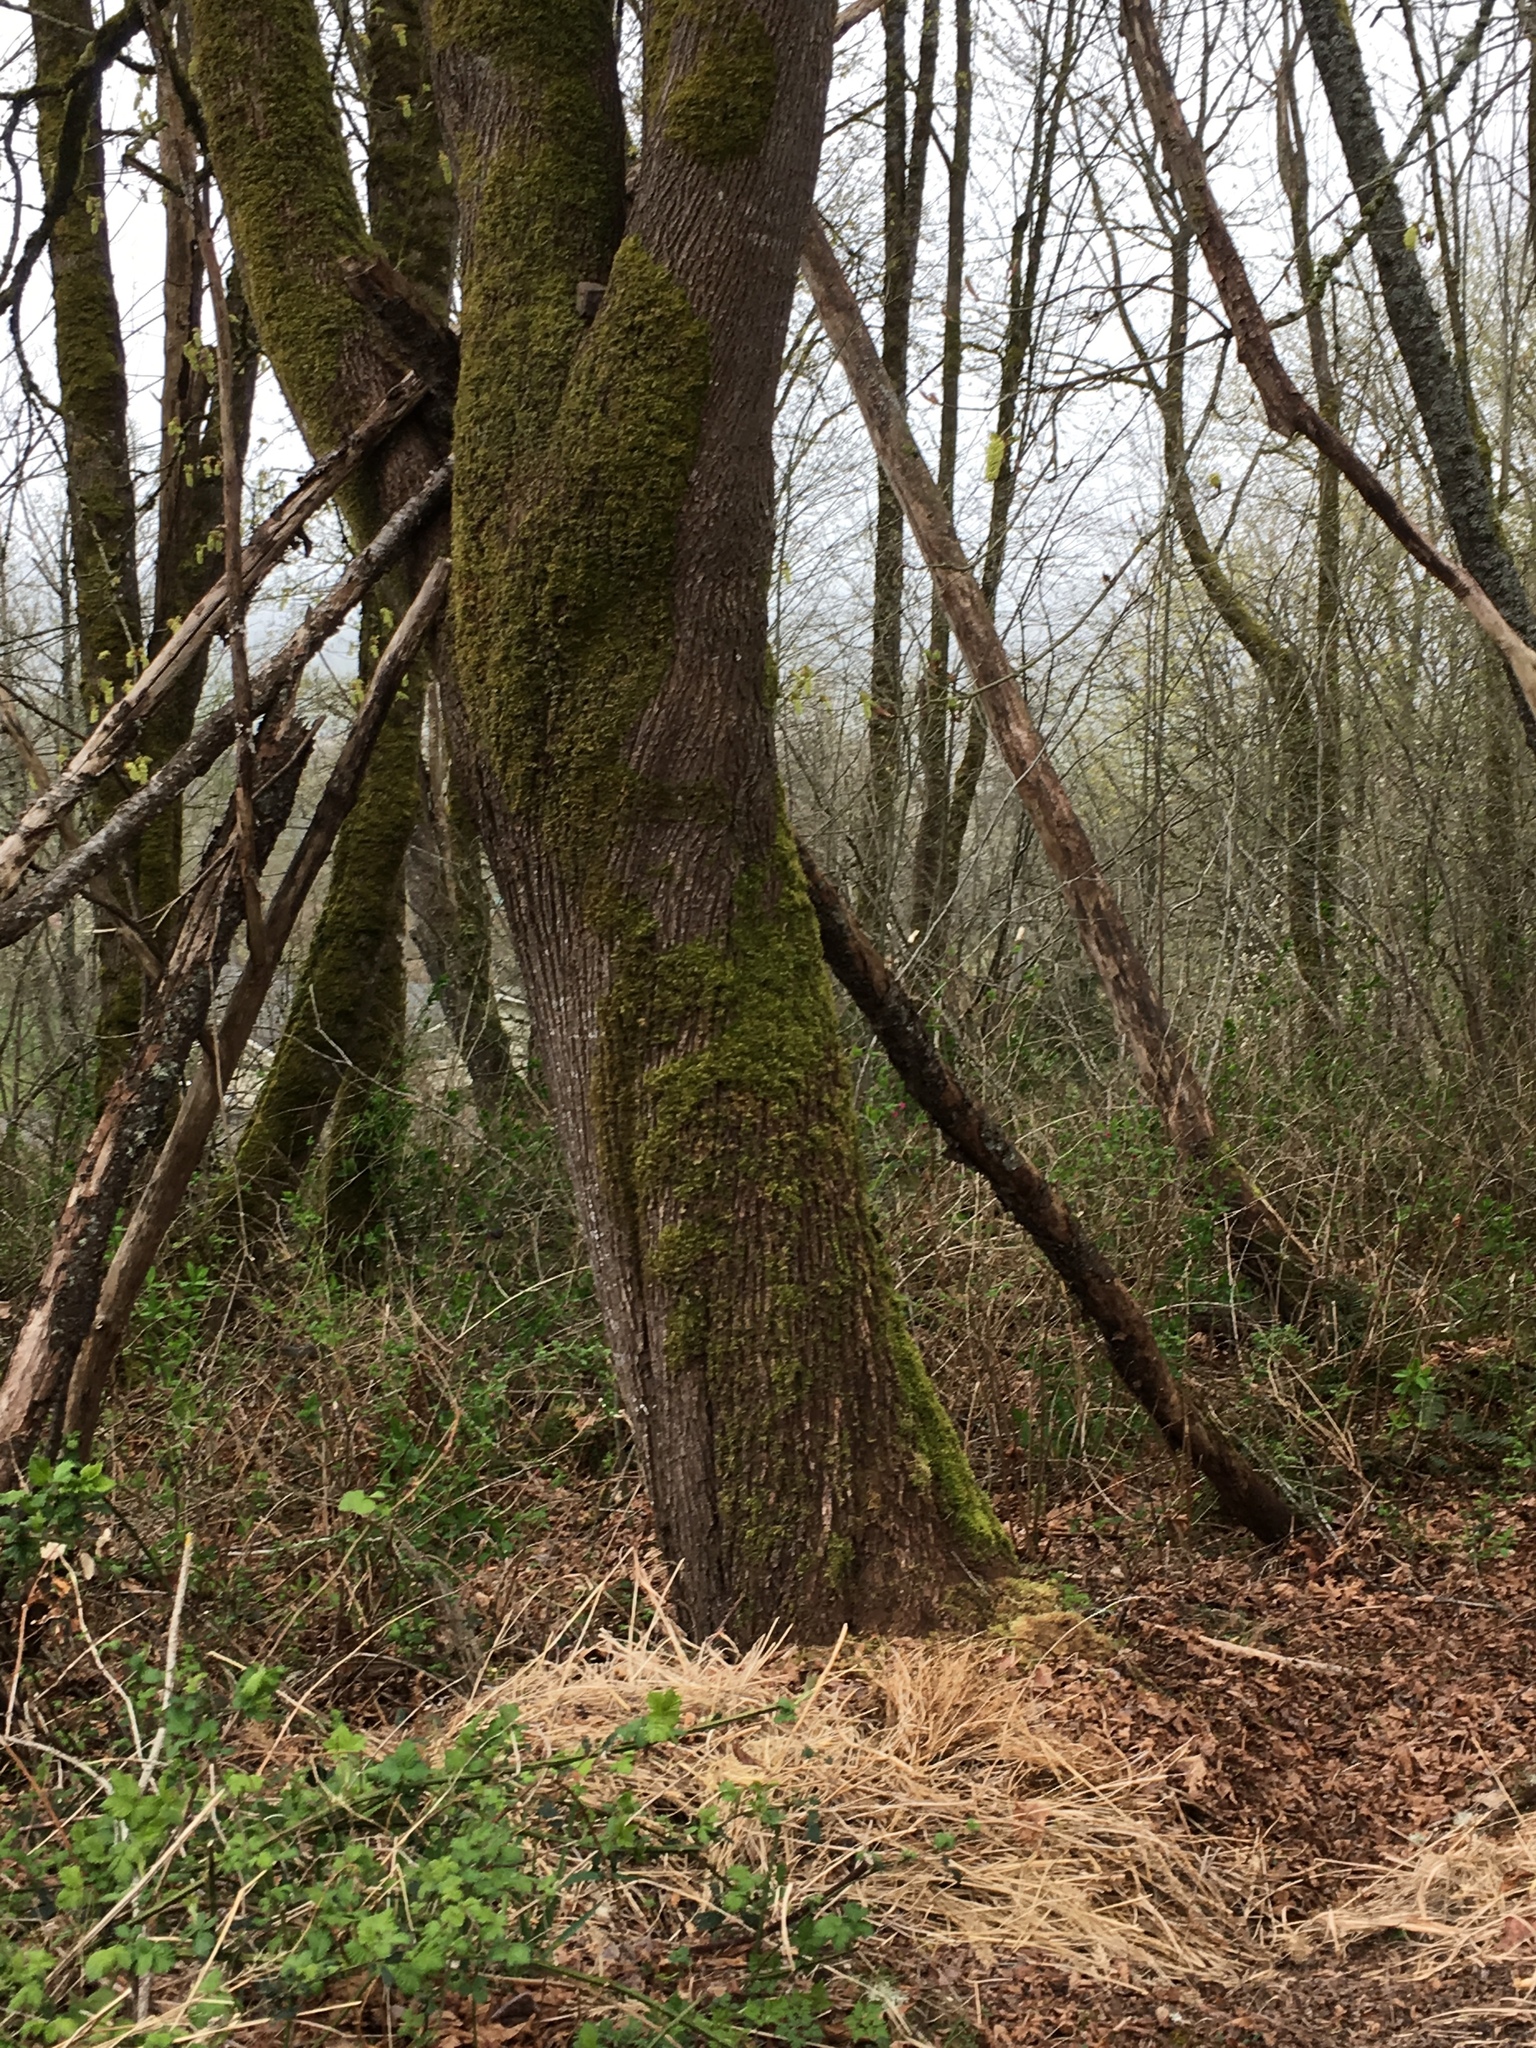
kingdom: Plantae
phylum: Tracheophyta
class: Magnoliopsida
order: Sapindales
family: Sapindaceae
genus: Acer
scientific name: Acer macrophyllum
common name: Oregon maple
